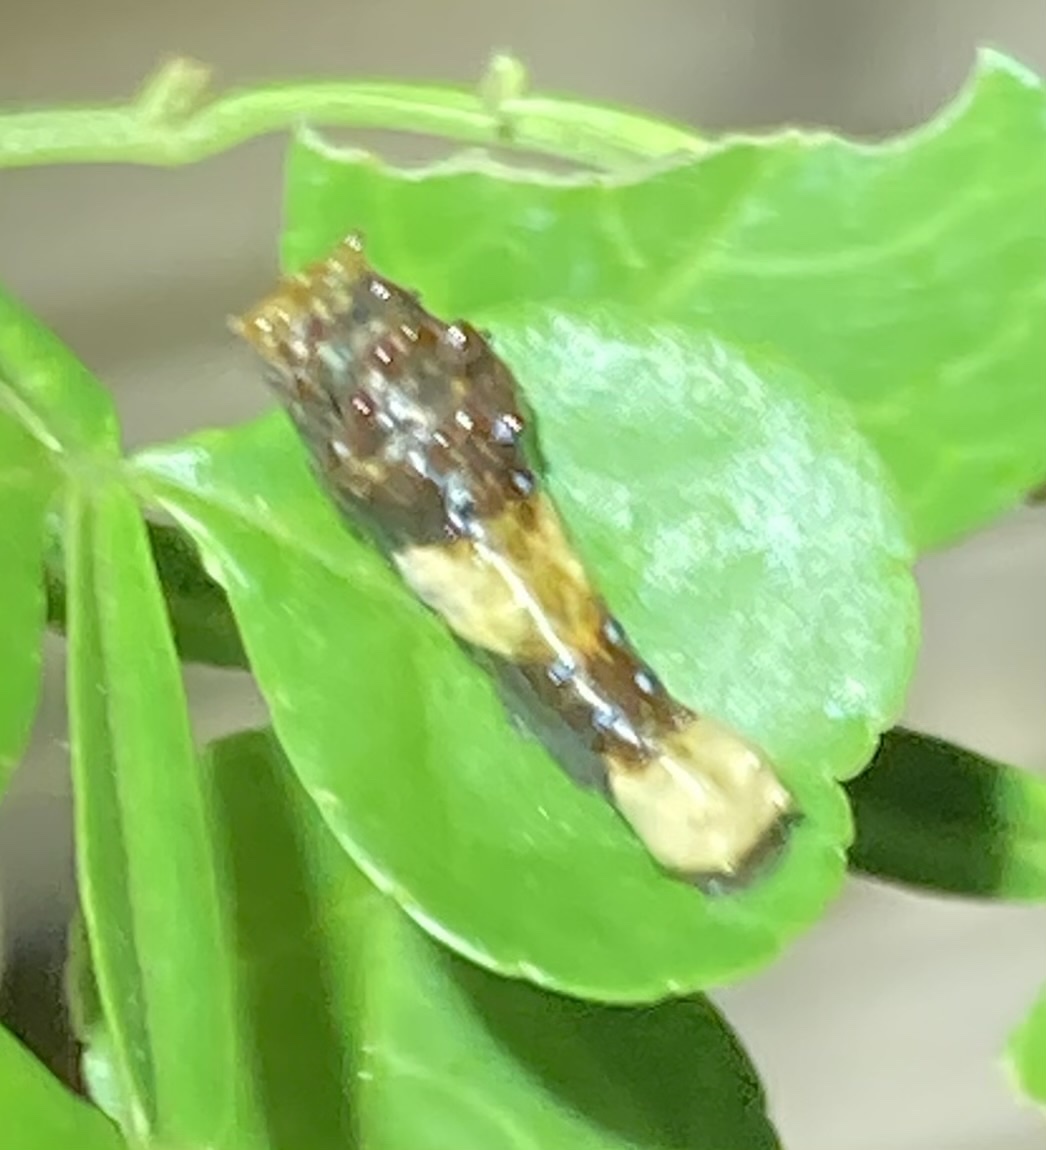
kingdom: Animalia
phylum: Arthropoda
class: Insecta
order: Lepidoptera
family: Papilionidae
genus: Papilio
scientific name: Papilio cresphontes
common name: Giant swallowtail
